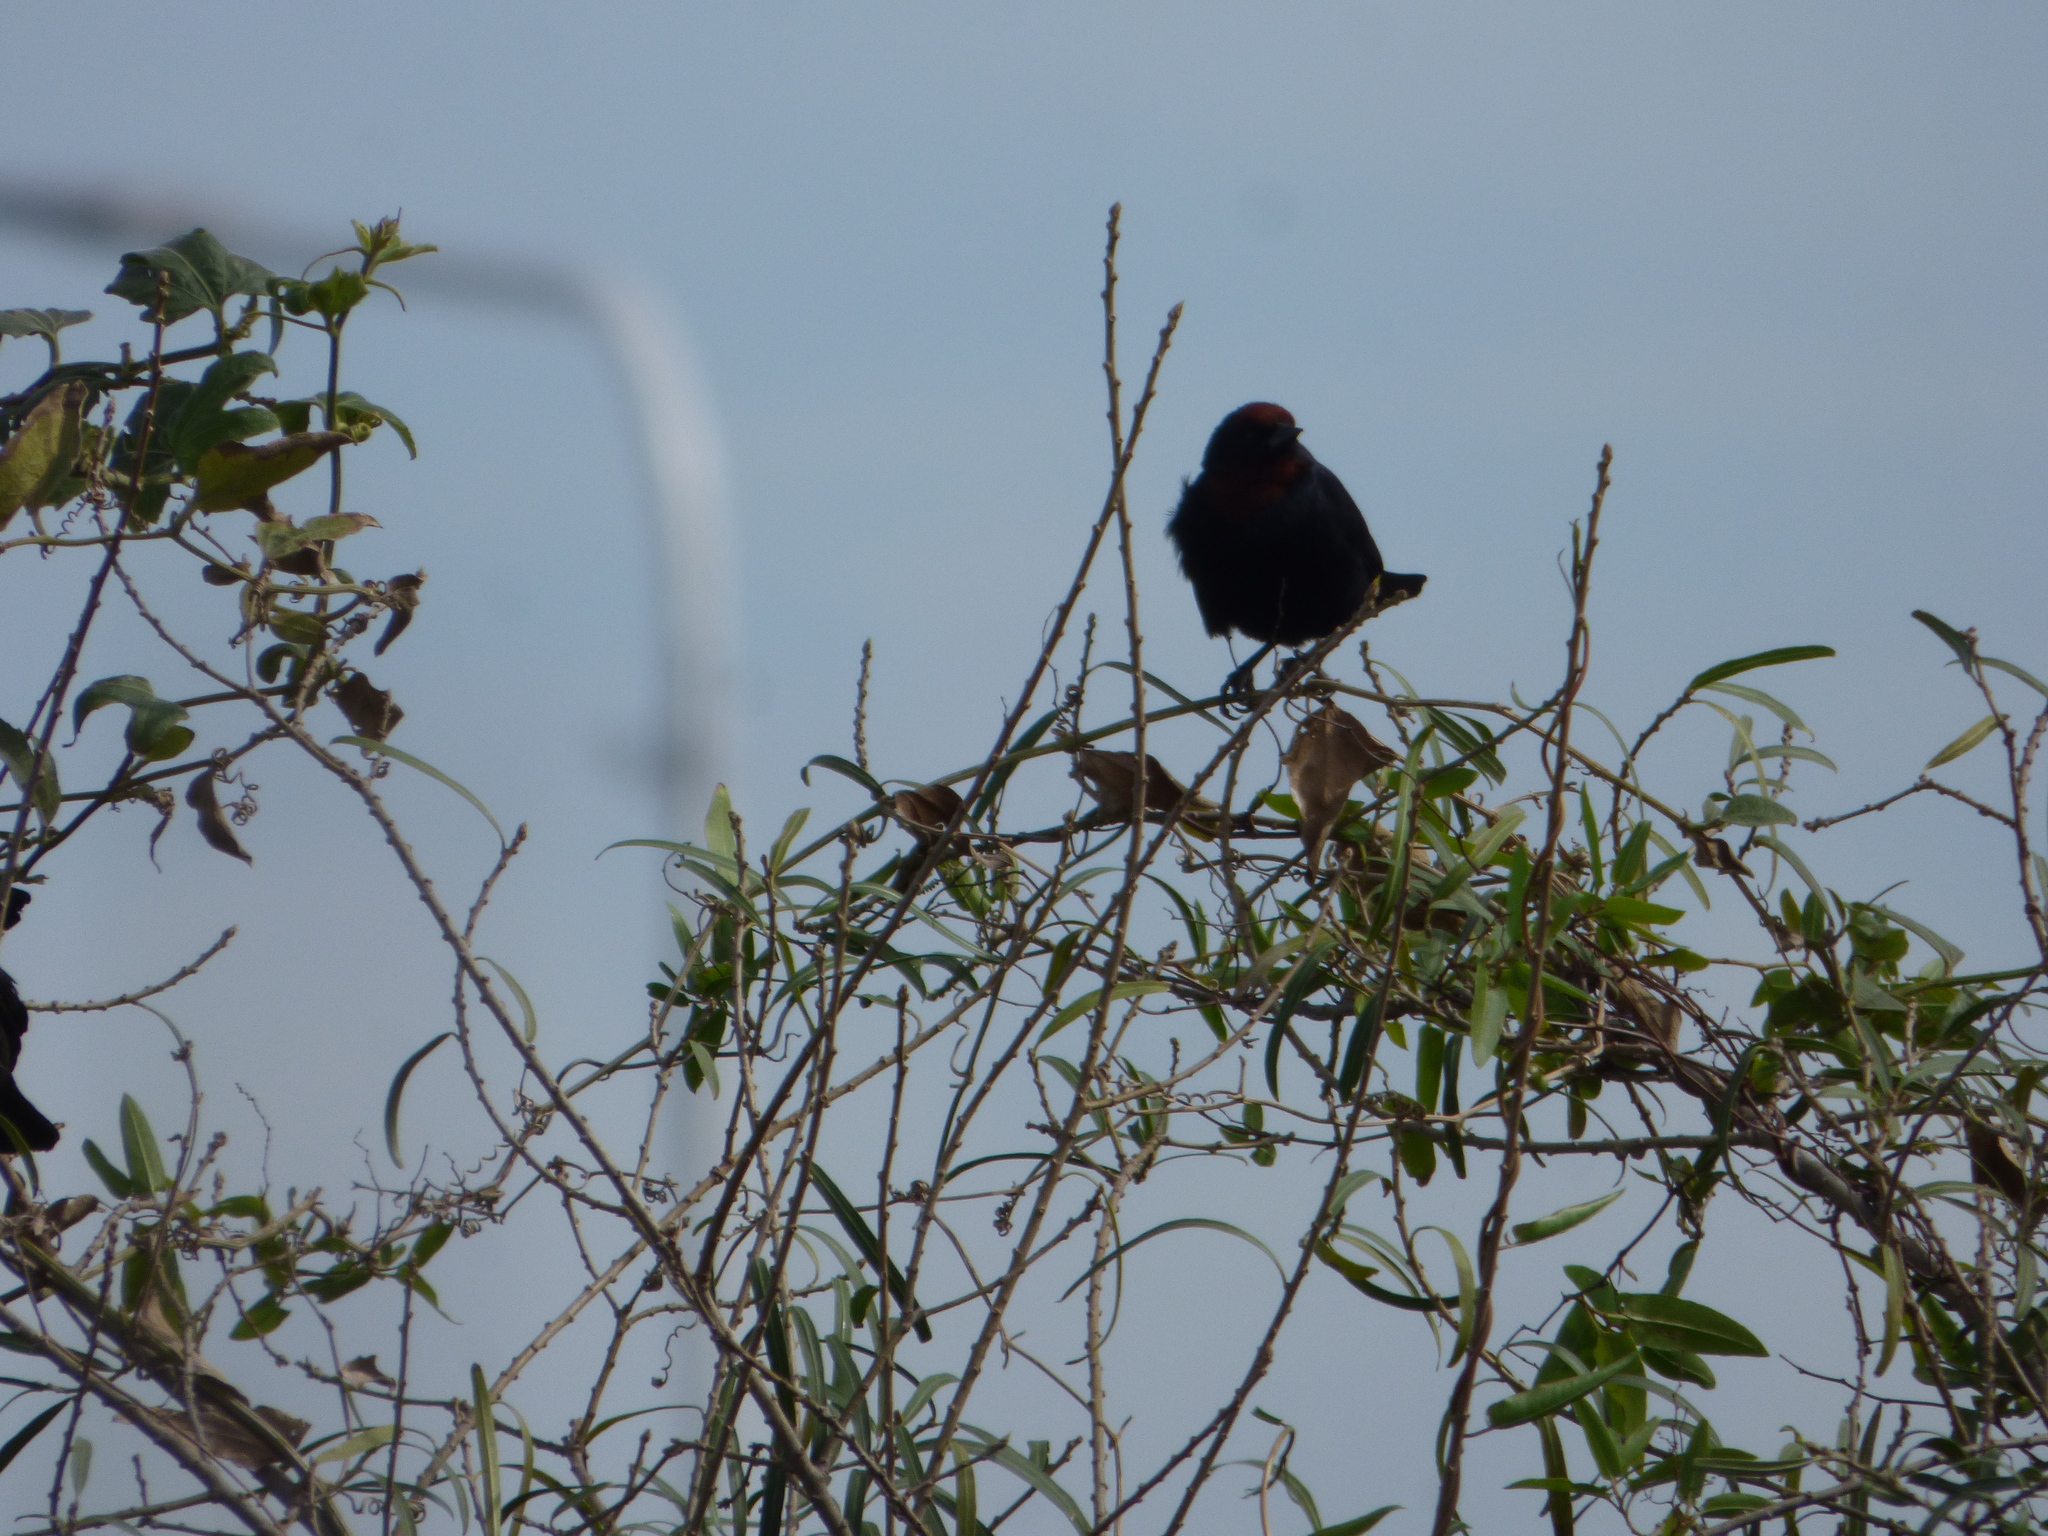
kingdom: Animalia
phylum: Chordata
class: Aves
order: Passeriformes
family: Icteridae
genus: Chrysomus
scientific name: Chrysomus ruficapillus
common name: Chestnut-capped blackbird
